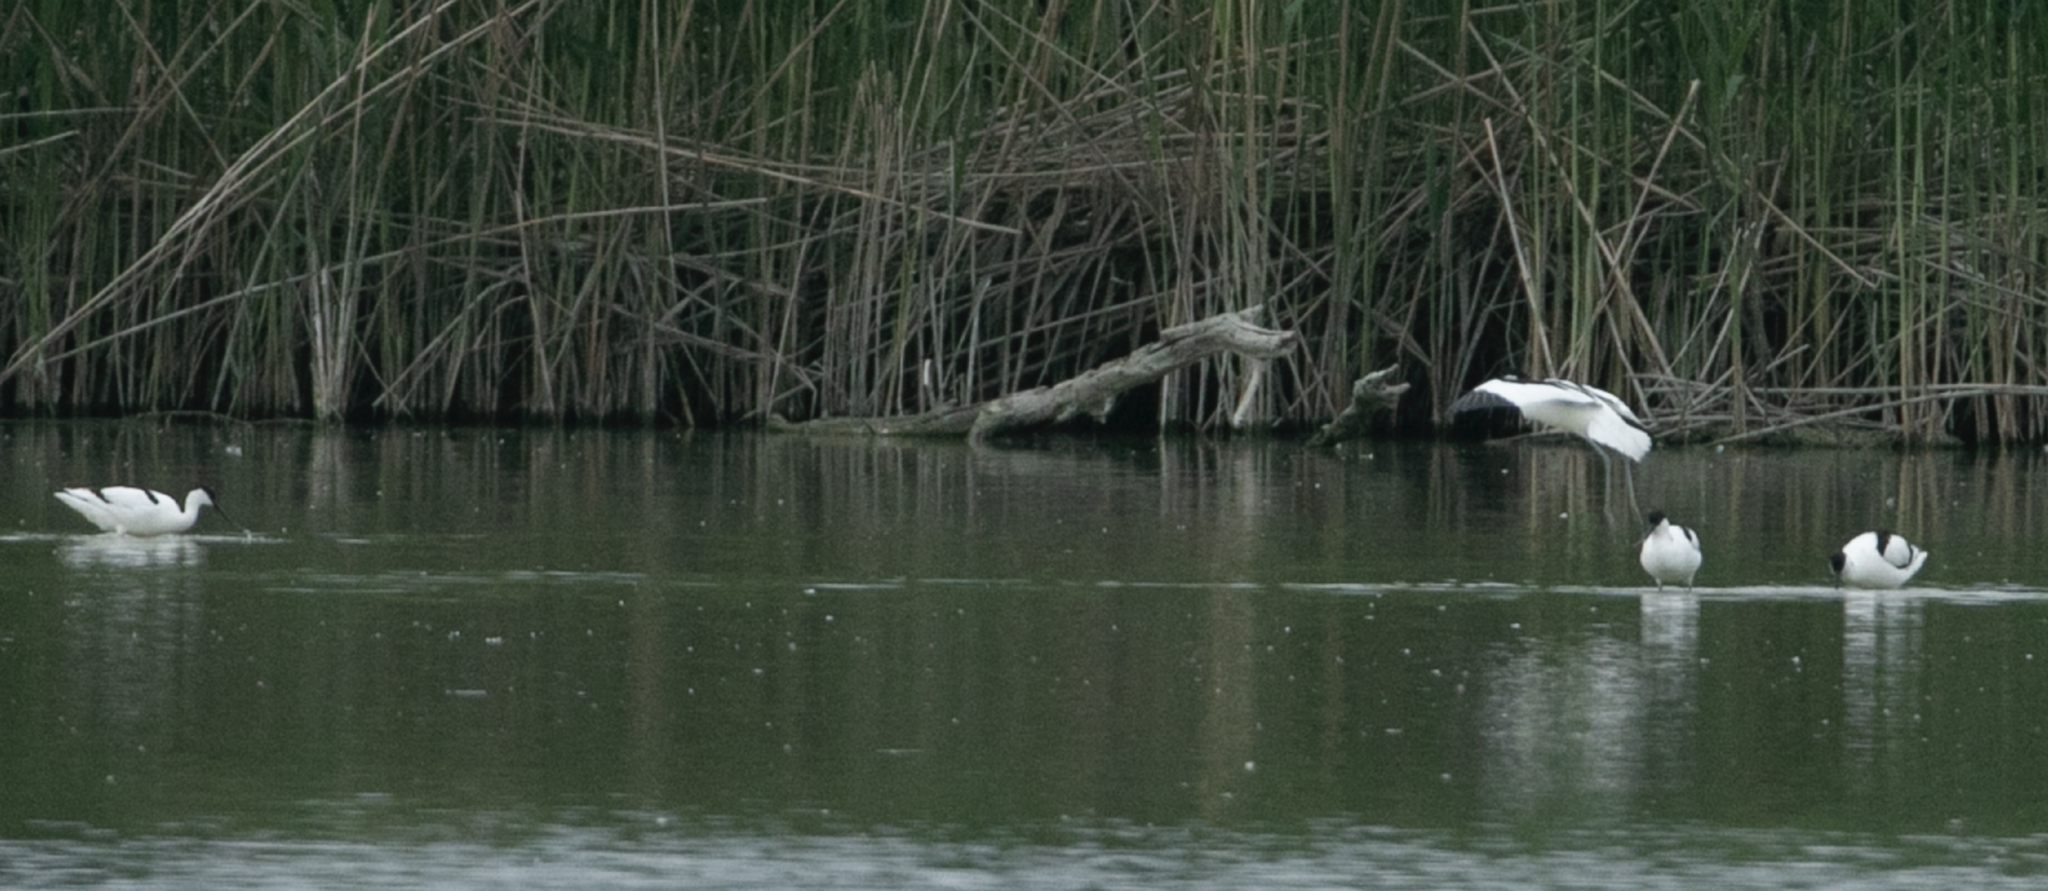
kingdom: Animalia
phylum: Chordata
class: Aves
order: Charadriiformes
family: Recurvirostridae
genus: Recurvirostra
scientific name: Recurvirostra avosetta
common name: Pied avocet
